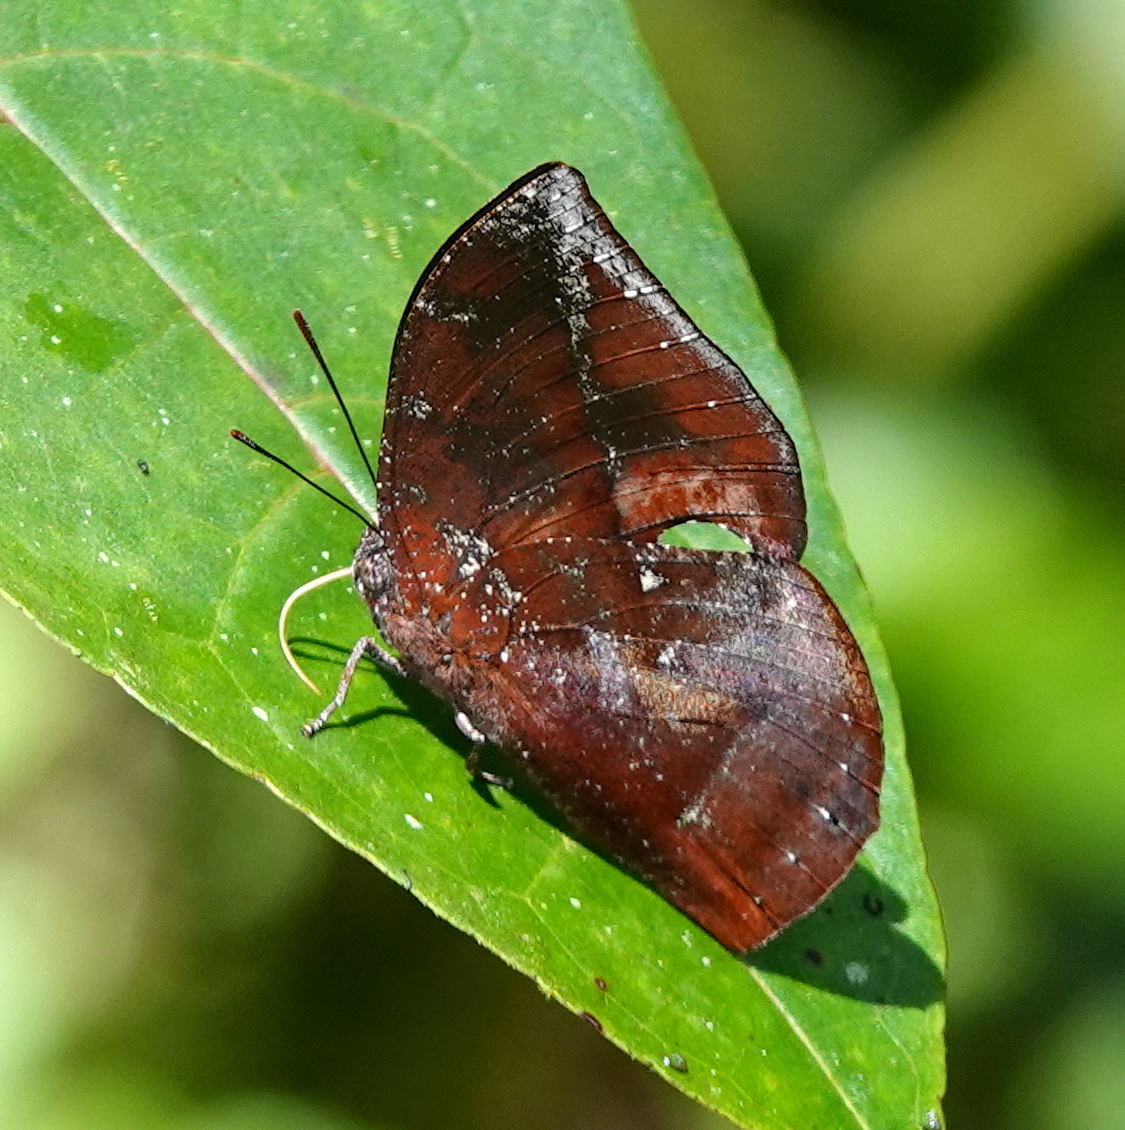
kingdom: Animalia
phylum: Arthropoda
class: Insecta
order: Lepidoptera
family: Nymphalidae
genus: Memphis
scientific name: Memphis lyceus
